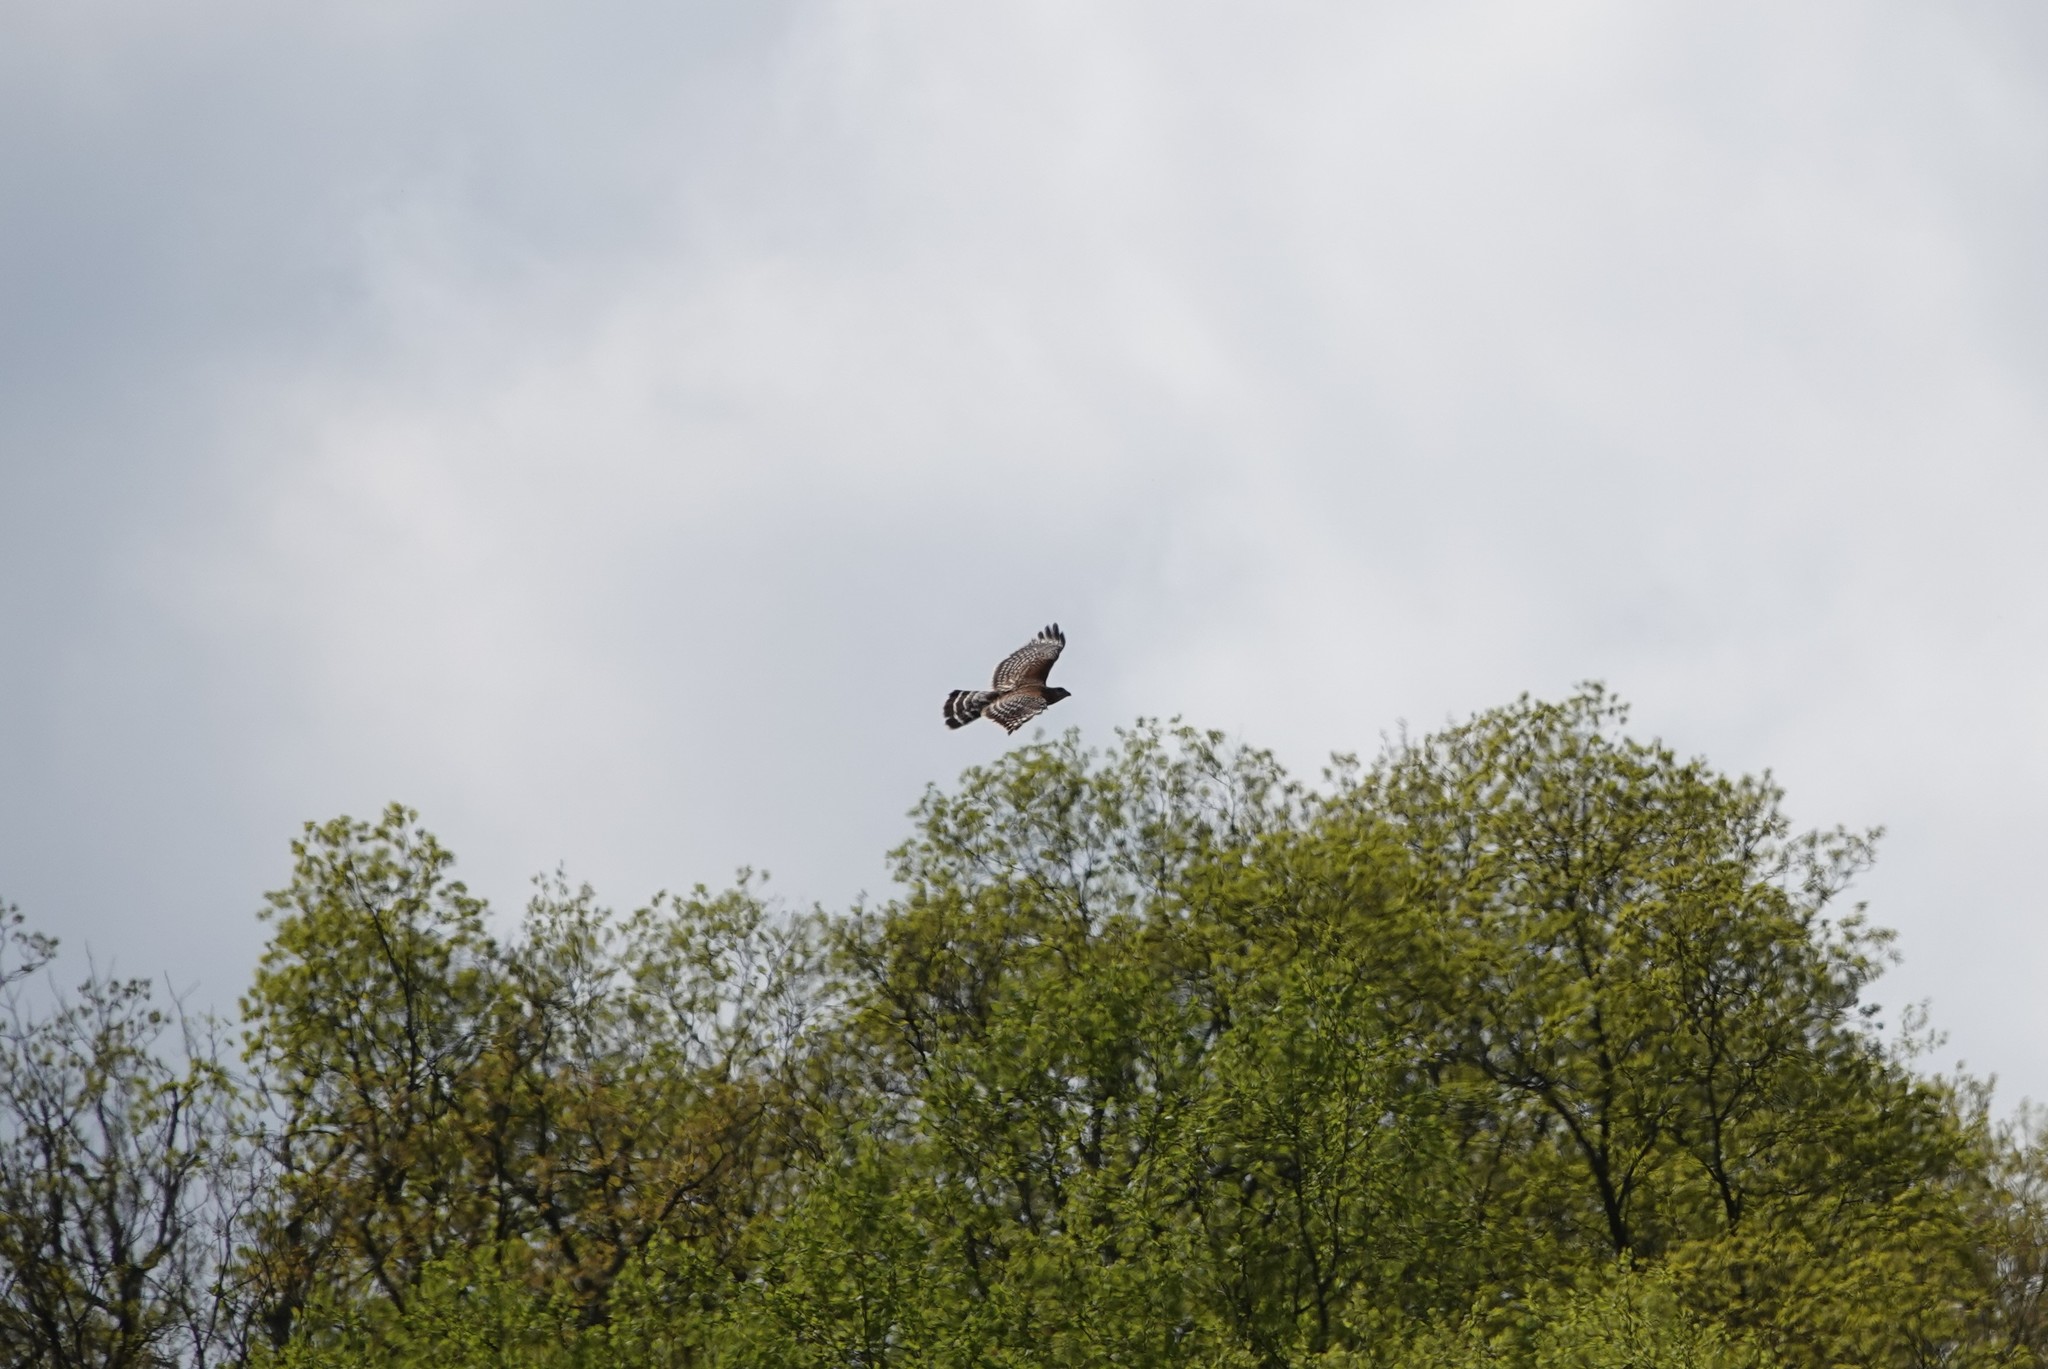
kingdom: Animalia
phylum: Chordata
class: Aves
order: Accipitriformes
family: Accipitridae
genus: Buteo
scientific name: Buteo lineatus
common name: Red-shouldered hawk
